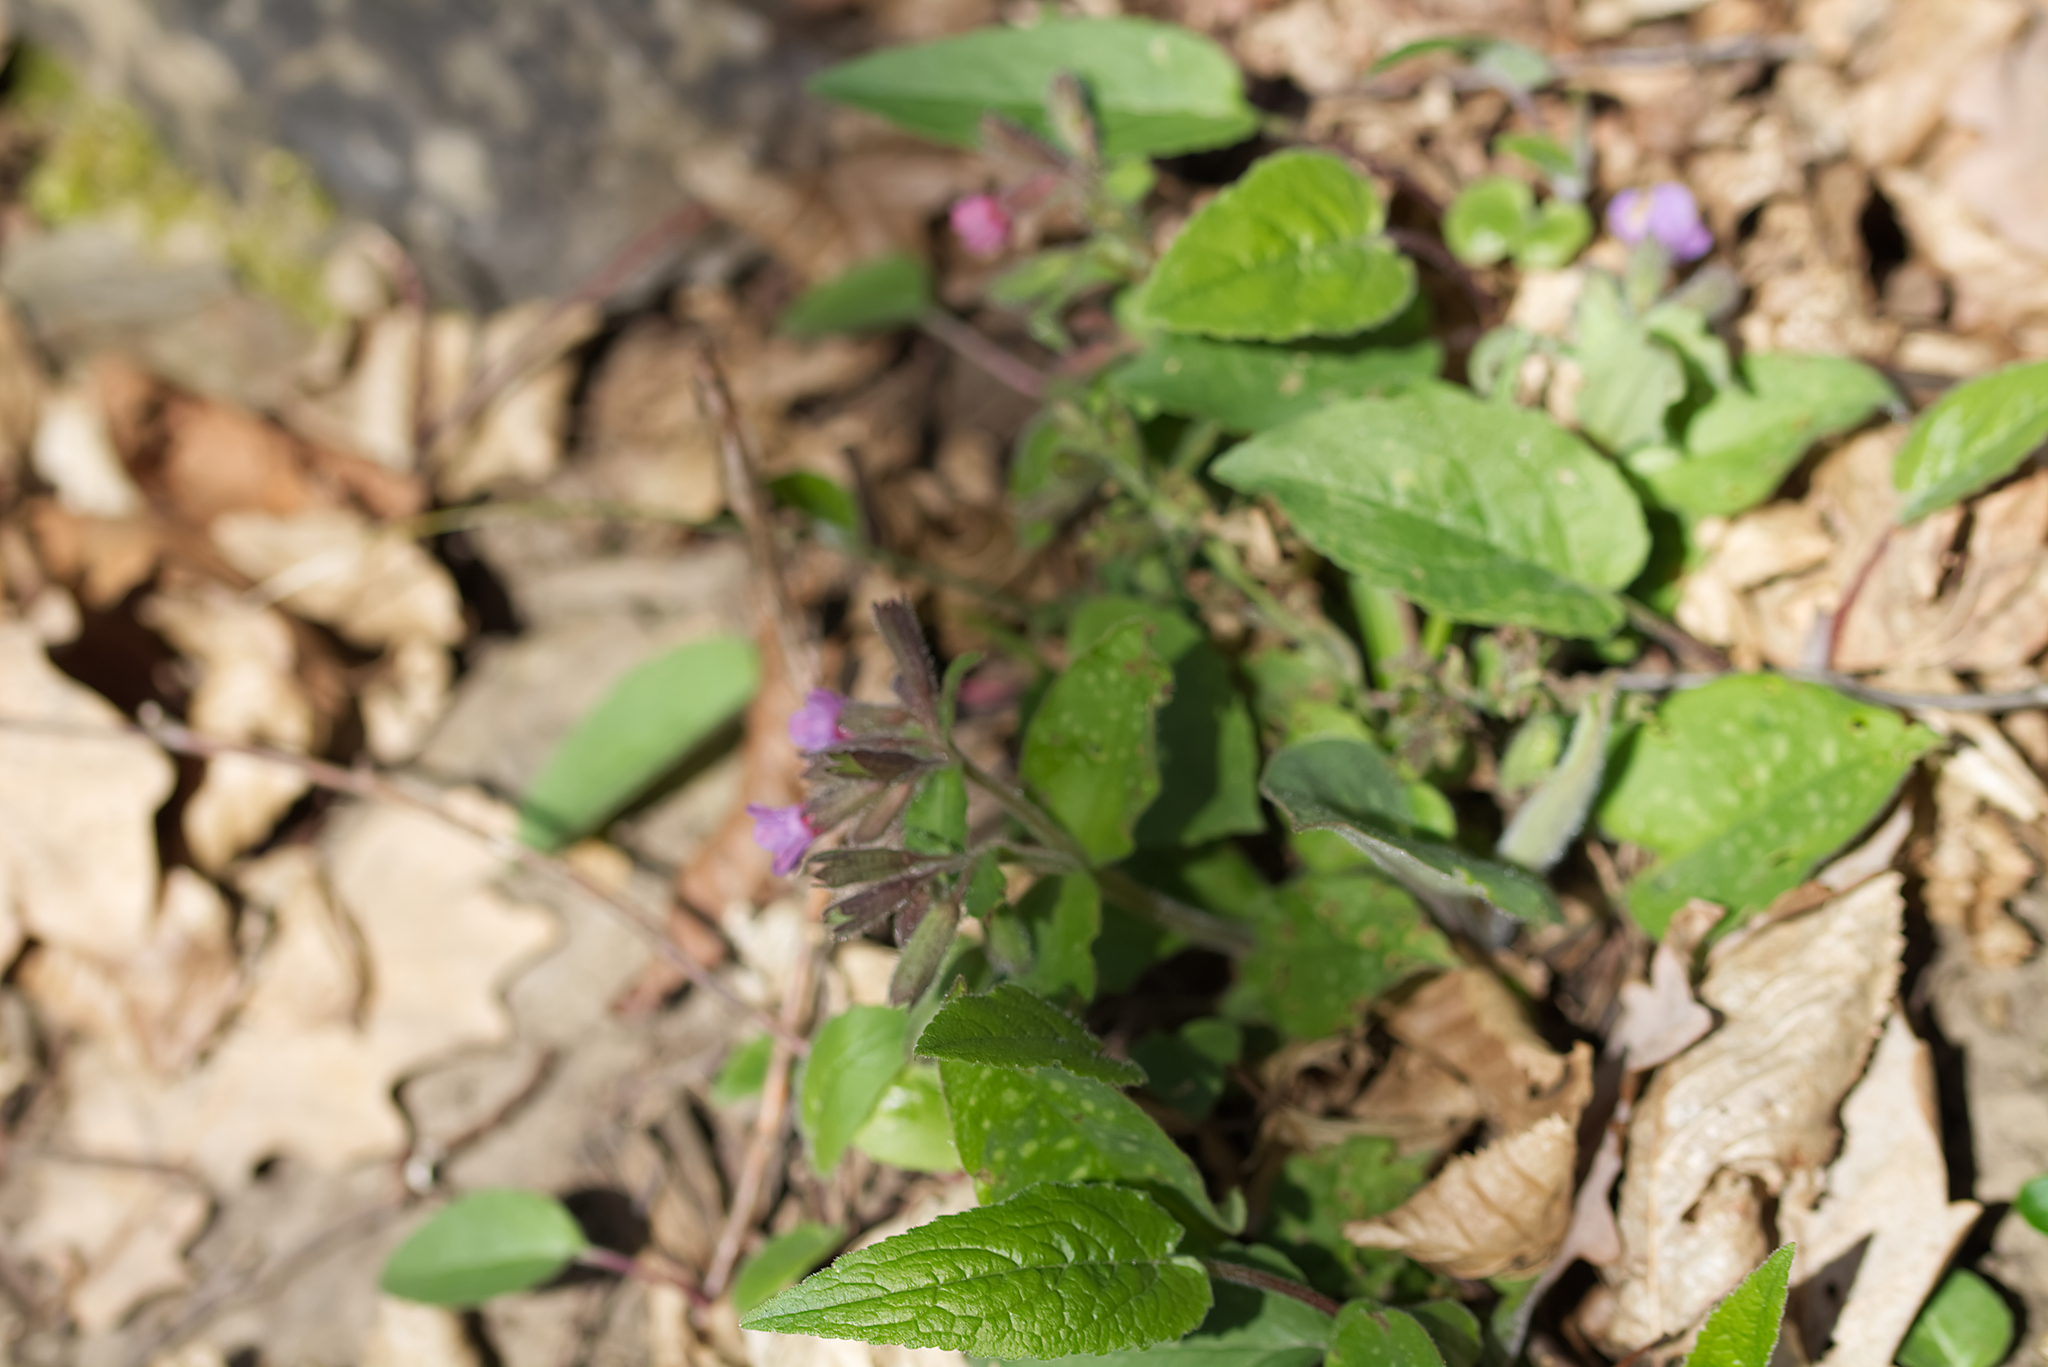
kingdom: Plantae
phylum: Tracheophyta
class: Magnoliopsida
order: Boraginales
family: Boraginaceae
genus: Pulmonaria
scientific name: Pulmonaria officinalis
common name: Lungwort
